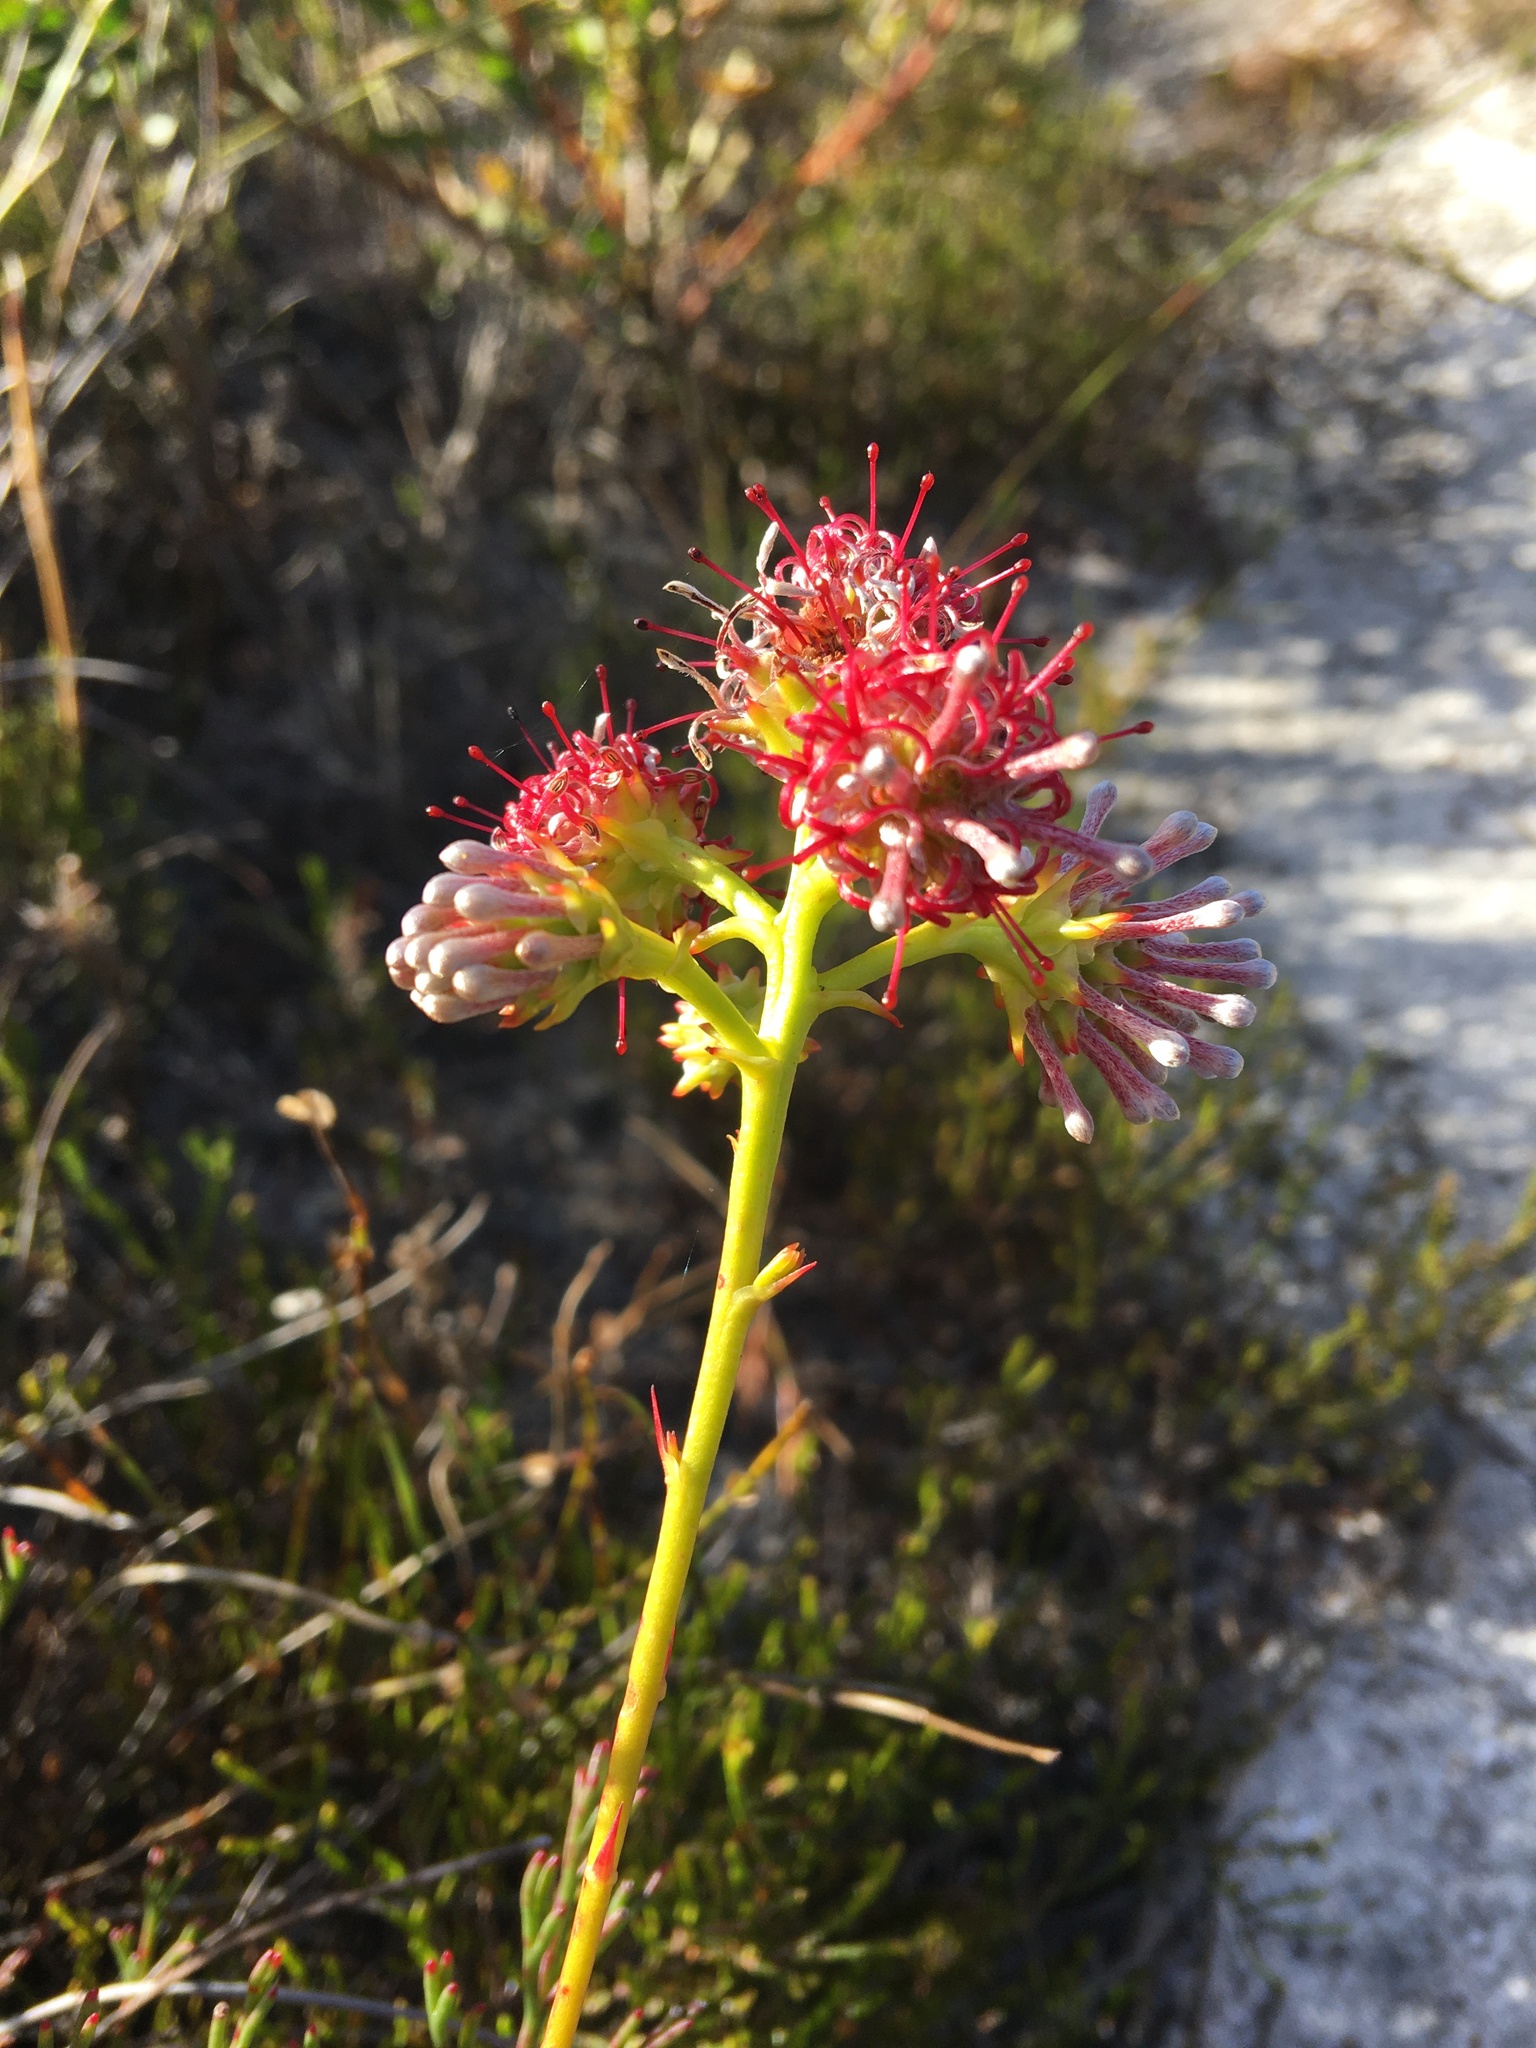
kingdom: Plantae
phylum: Tracheophyta
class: Magnoliopsida
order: Proteales
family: Proteaceae
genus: Serruria
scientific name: Serruria elongata
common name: Long-stalk spiderhead
